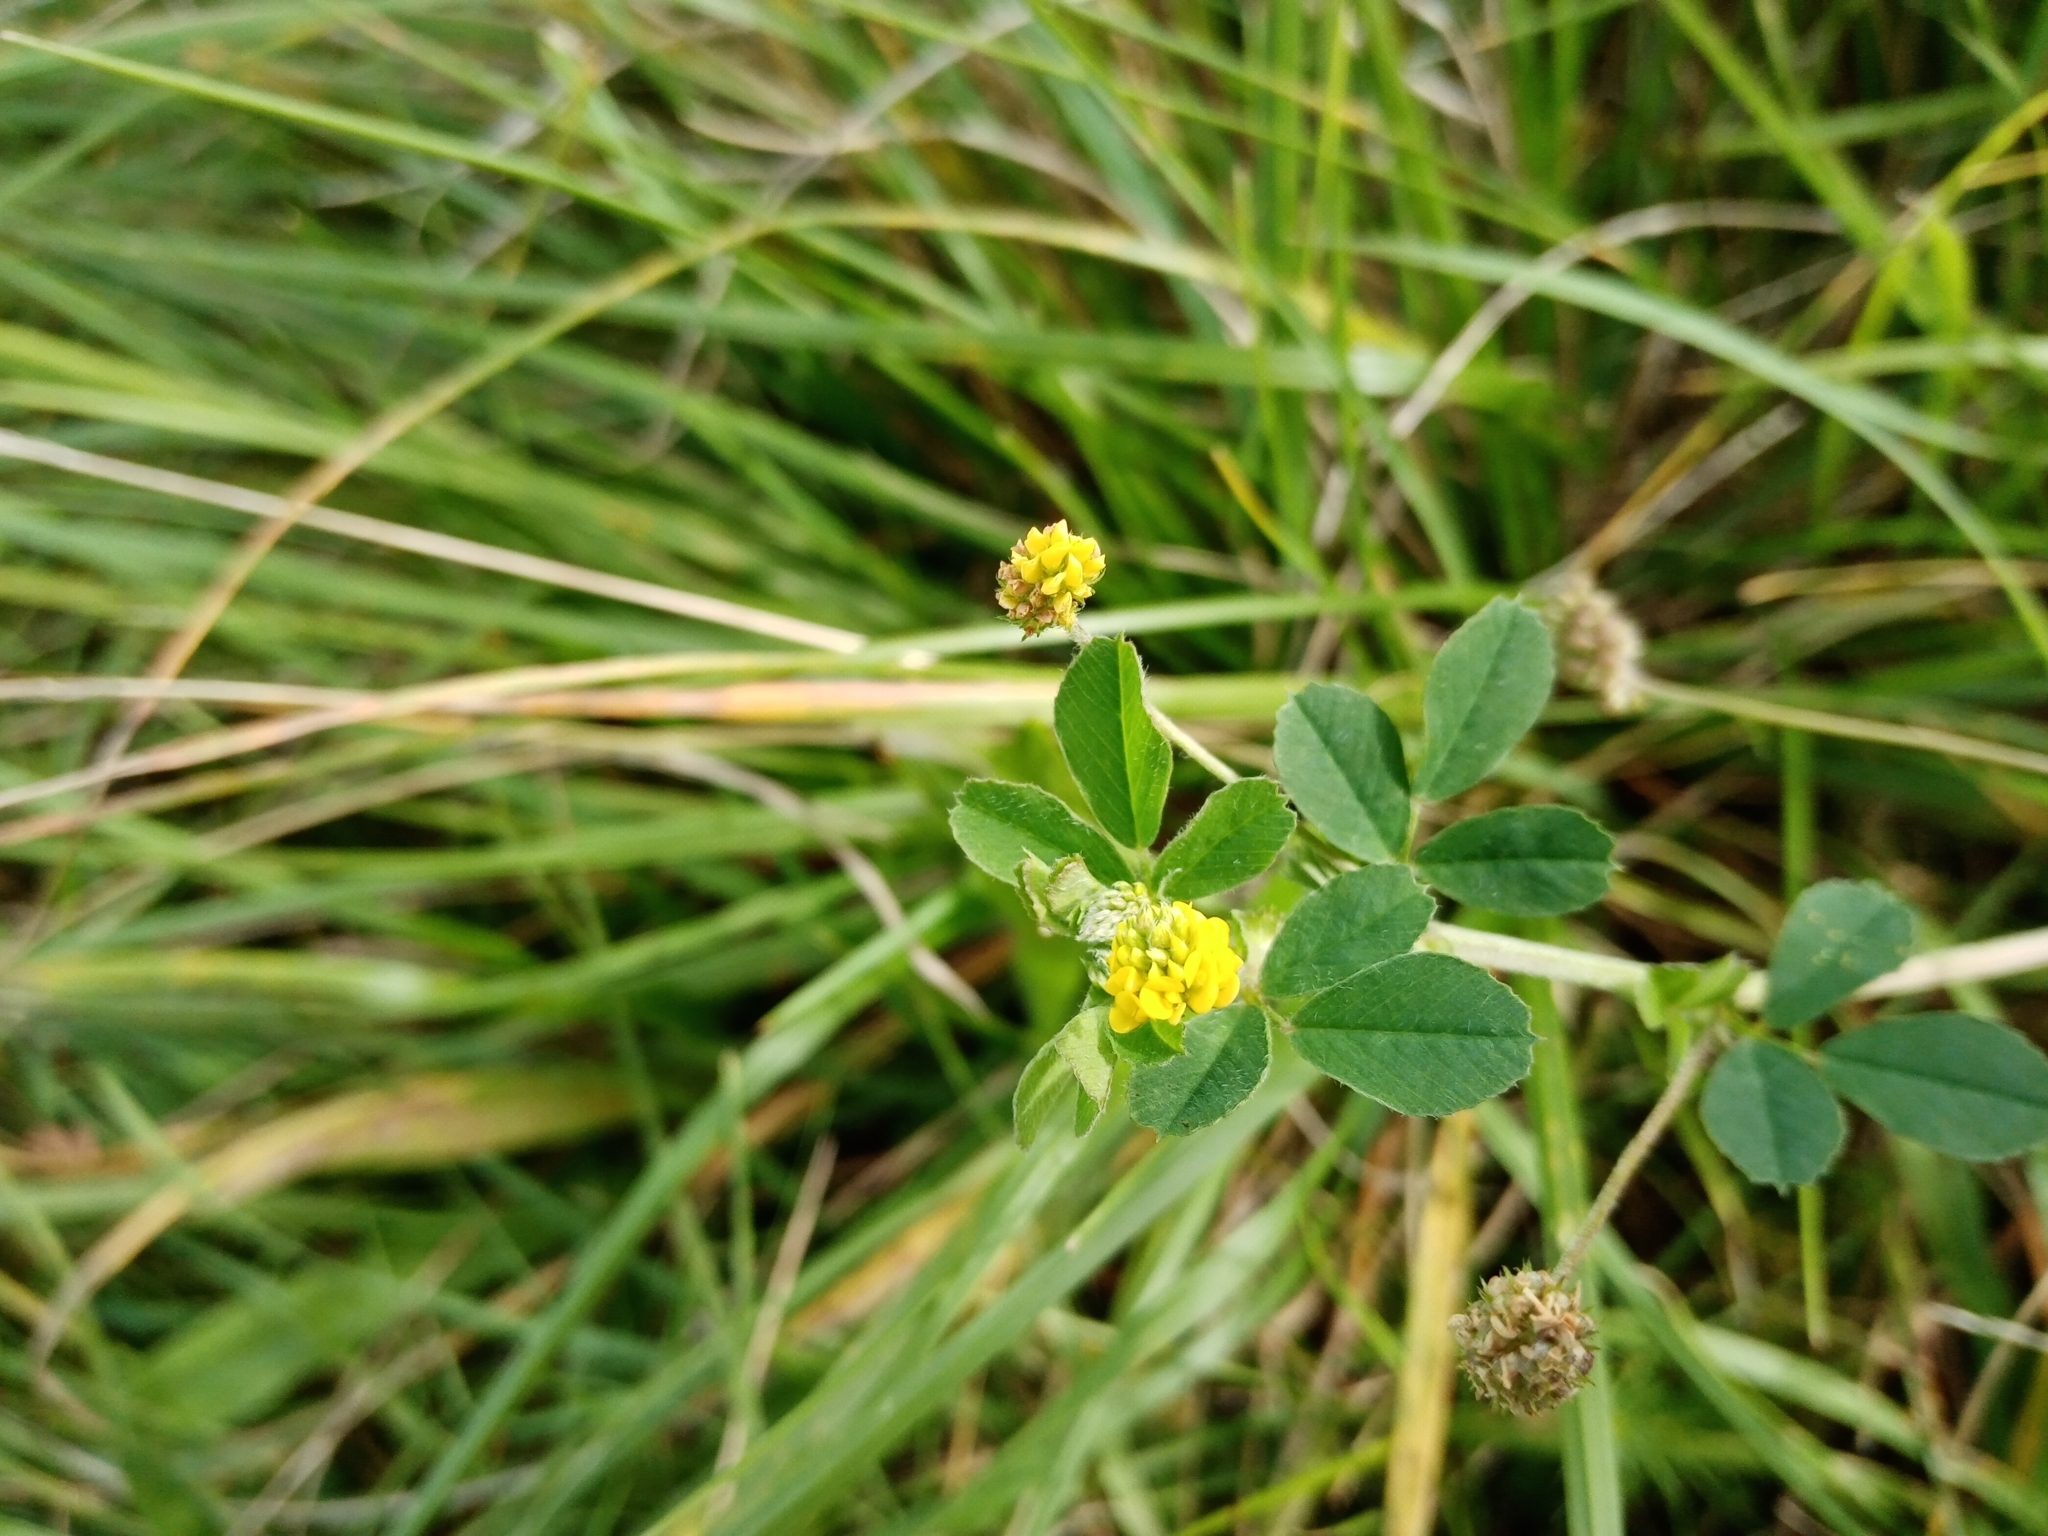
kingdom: Plantae
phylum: Tracheophyta
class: Magnoliopsida
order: Fabales
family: Fabaceae
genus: Medicago
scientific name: Medicago lupulina
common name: Black medick
